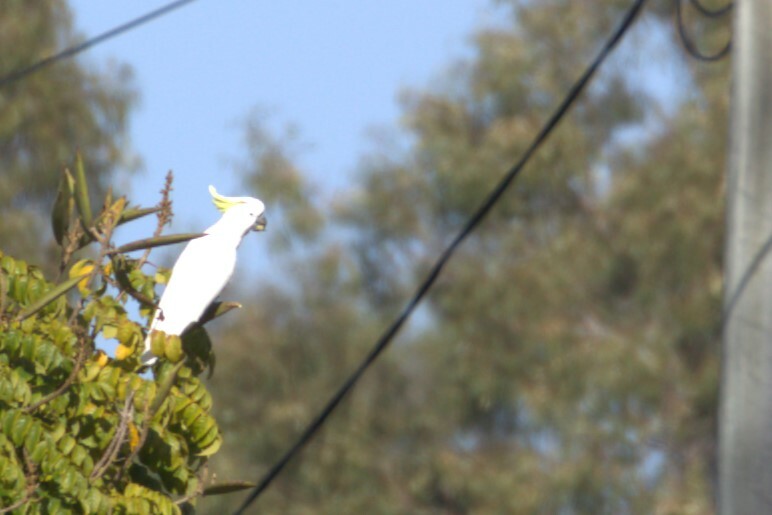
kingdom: Animalia
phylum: Chordata
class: Aves
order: Psittaciformes
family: Psittacidae
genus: Cacatua
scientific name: Cacatua galerita
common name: Sulphur-crested cockatoo
